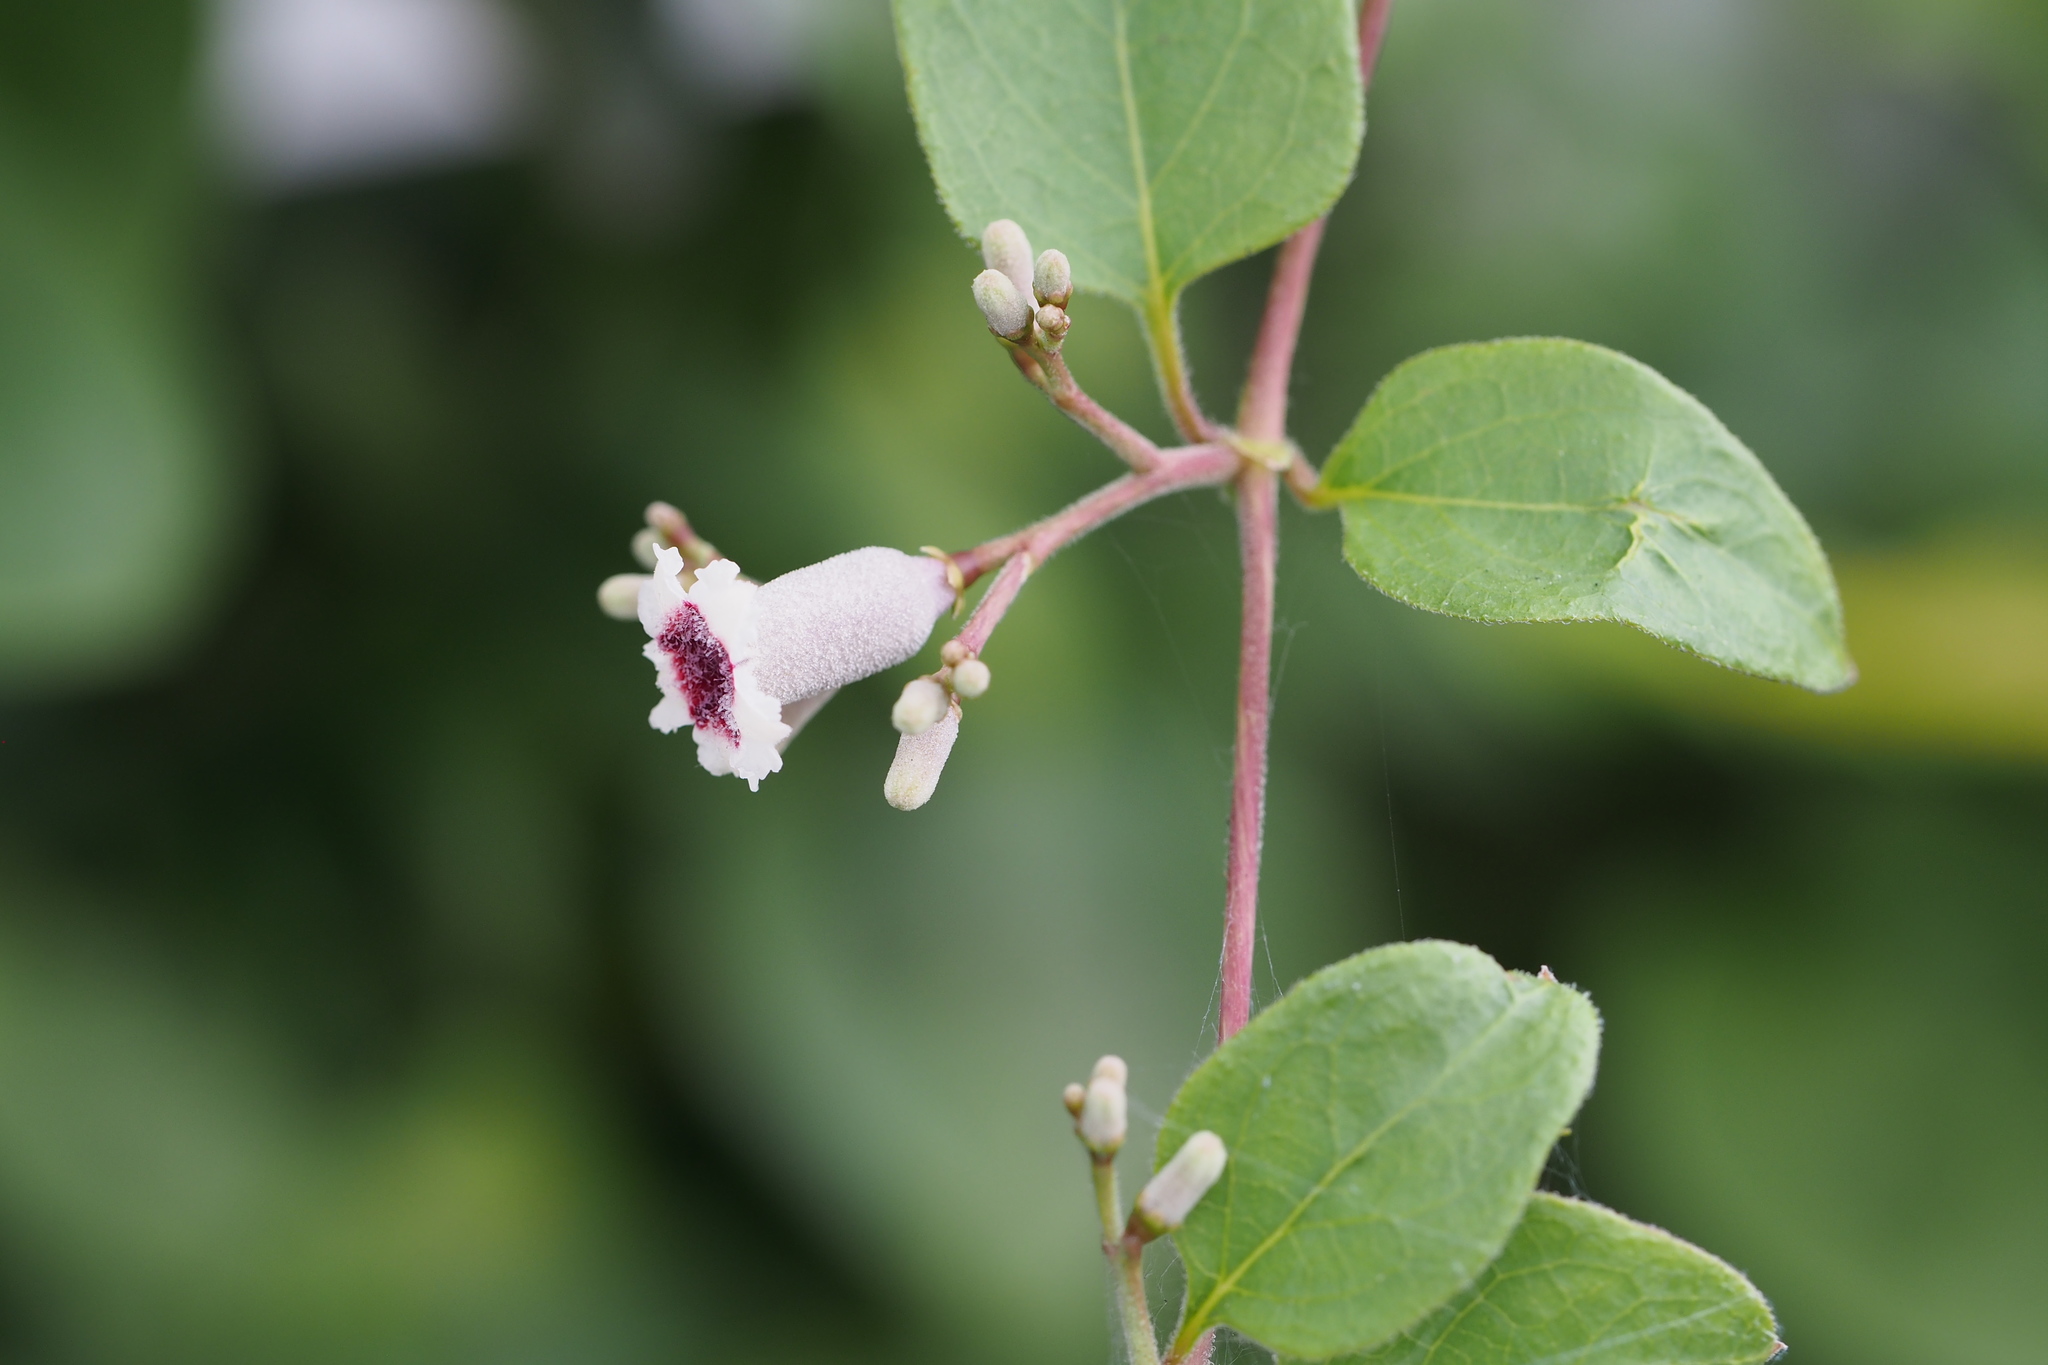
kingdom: Plantae
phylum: Tracheophyta
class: Magnoliopsida
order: Gentianales
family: Rubiaceae
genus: Paederia
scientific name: Paederia foetida
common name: Stinkvine
